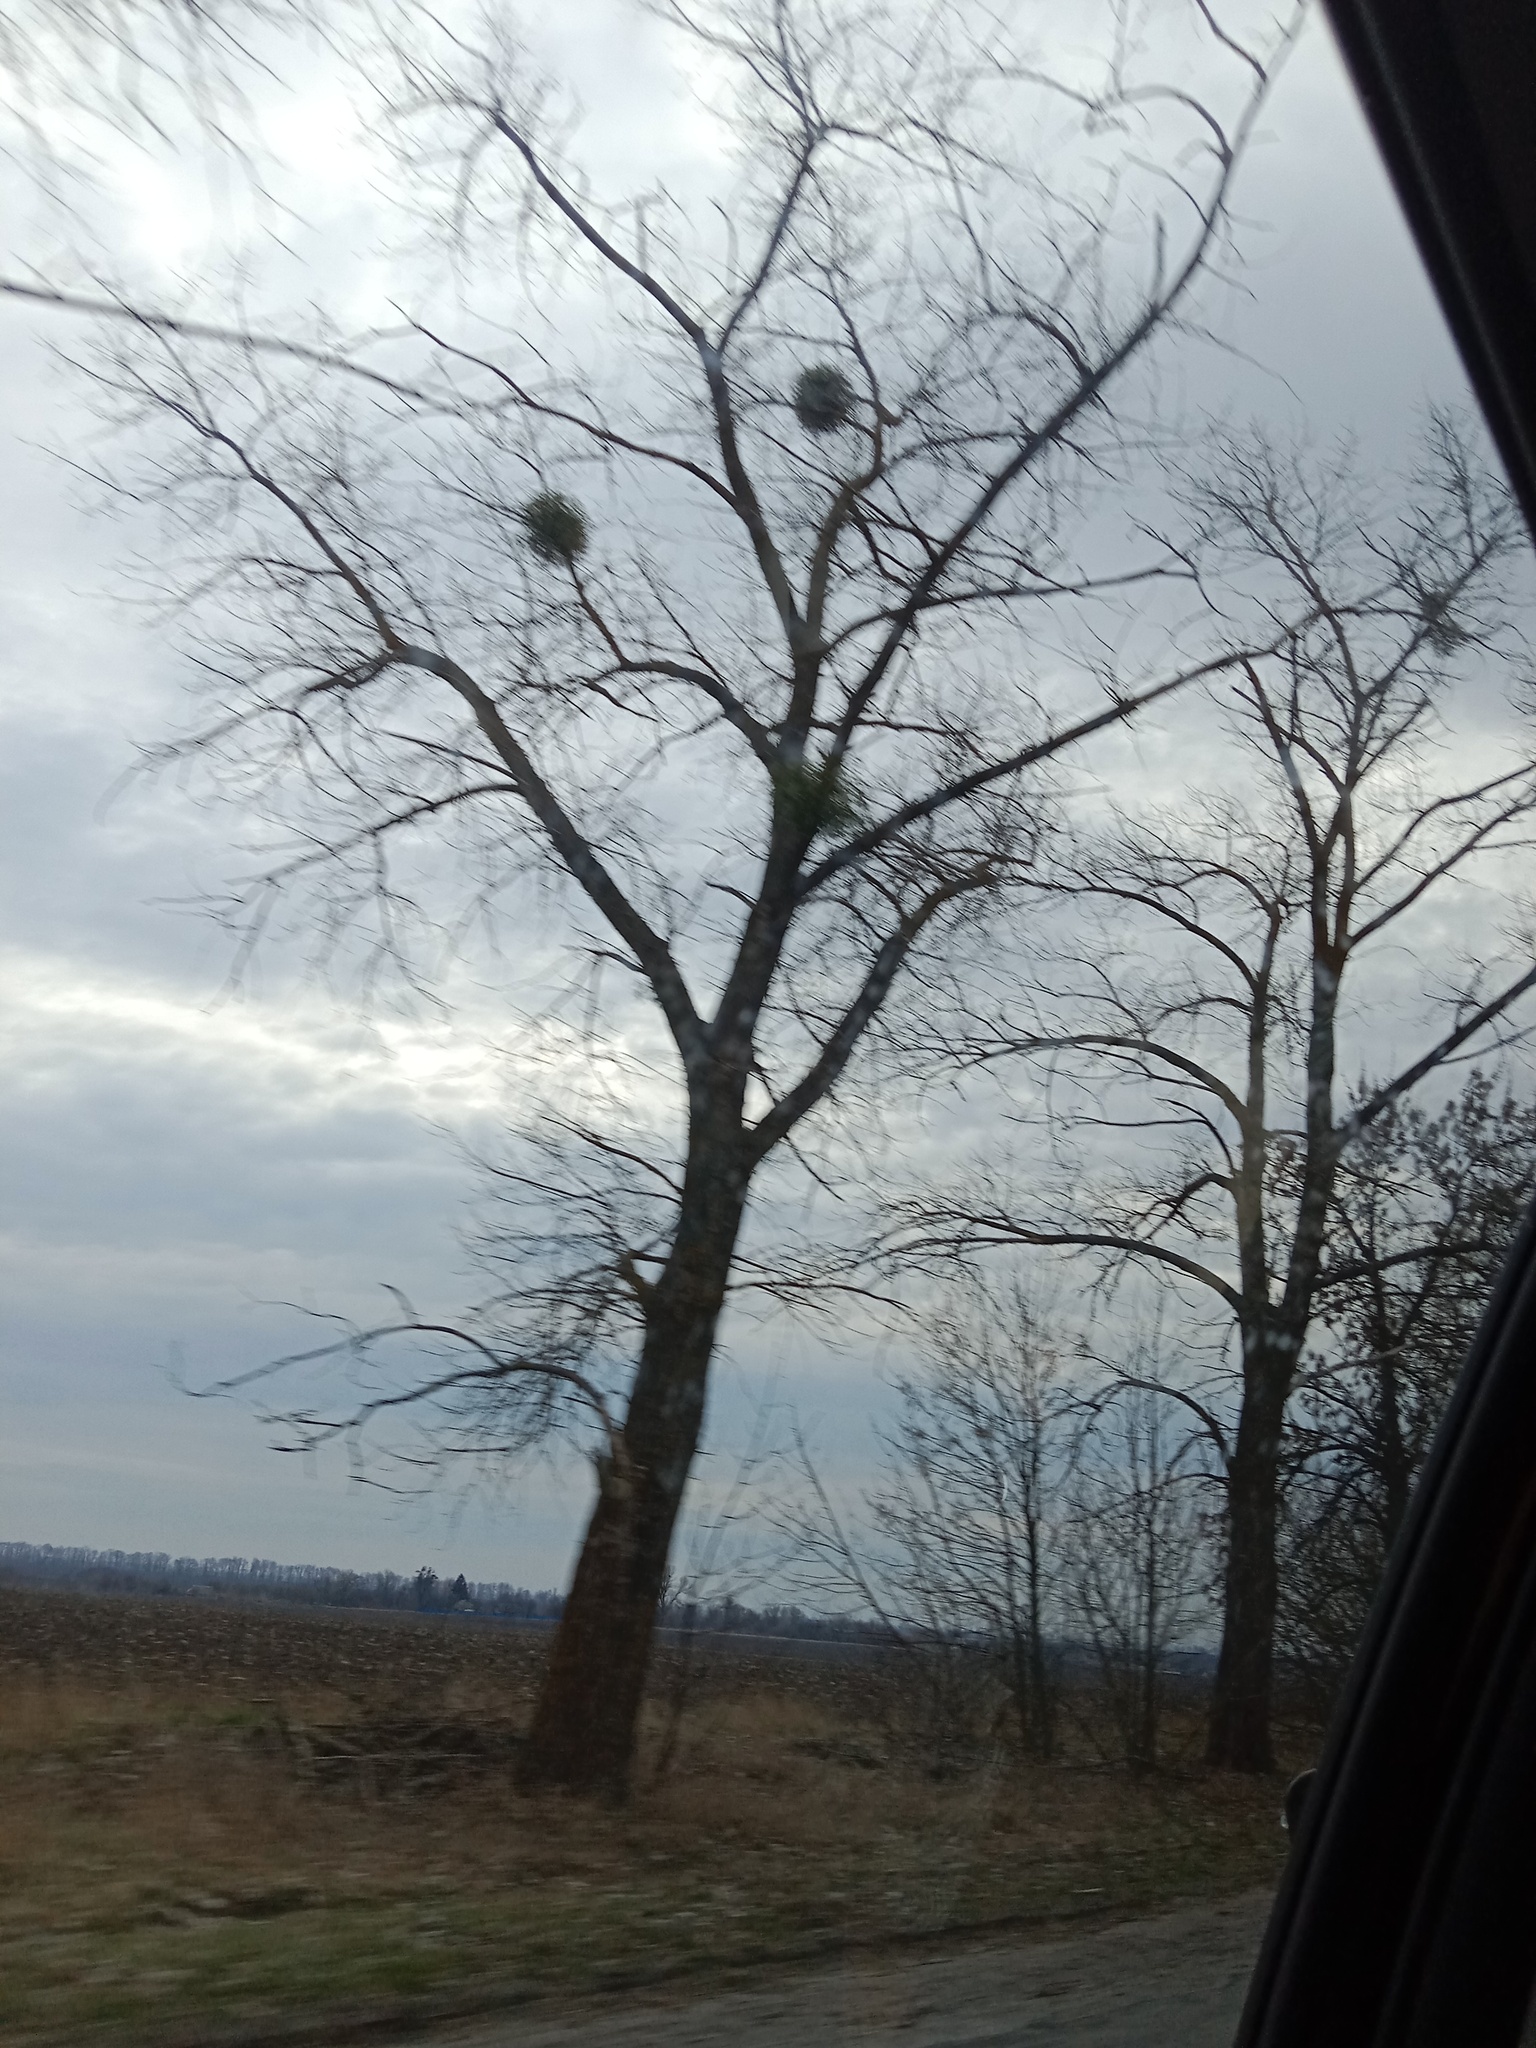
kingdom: Plantae
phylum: Tracheophyta
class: Magnoliopsida
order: Santalales
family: Viscaceae
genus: Viscum
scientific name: Viscum album
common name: Mistletoe
